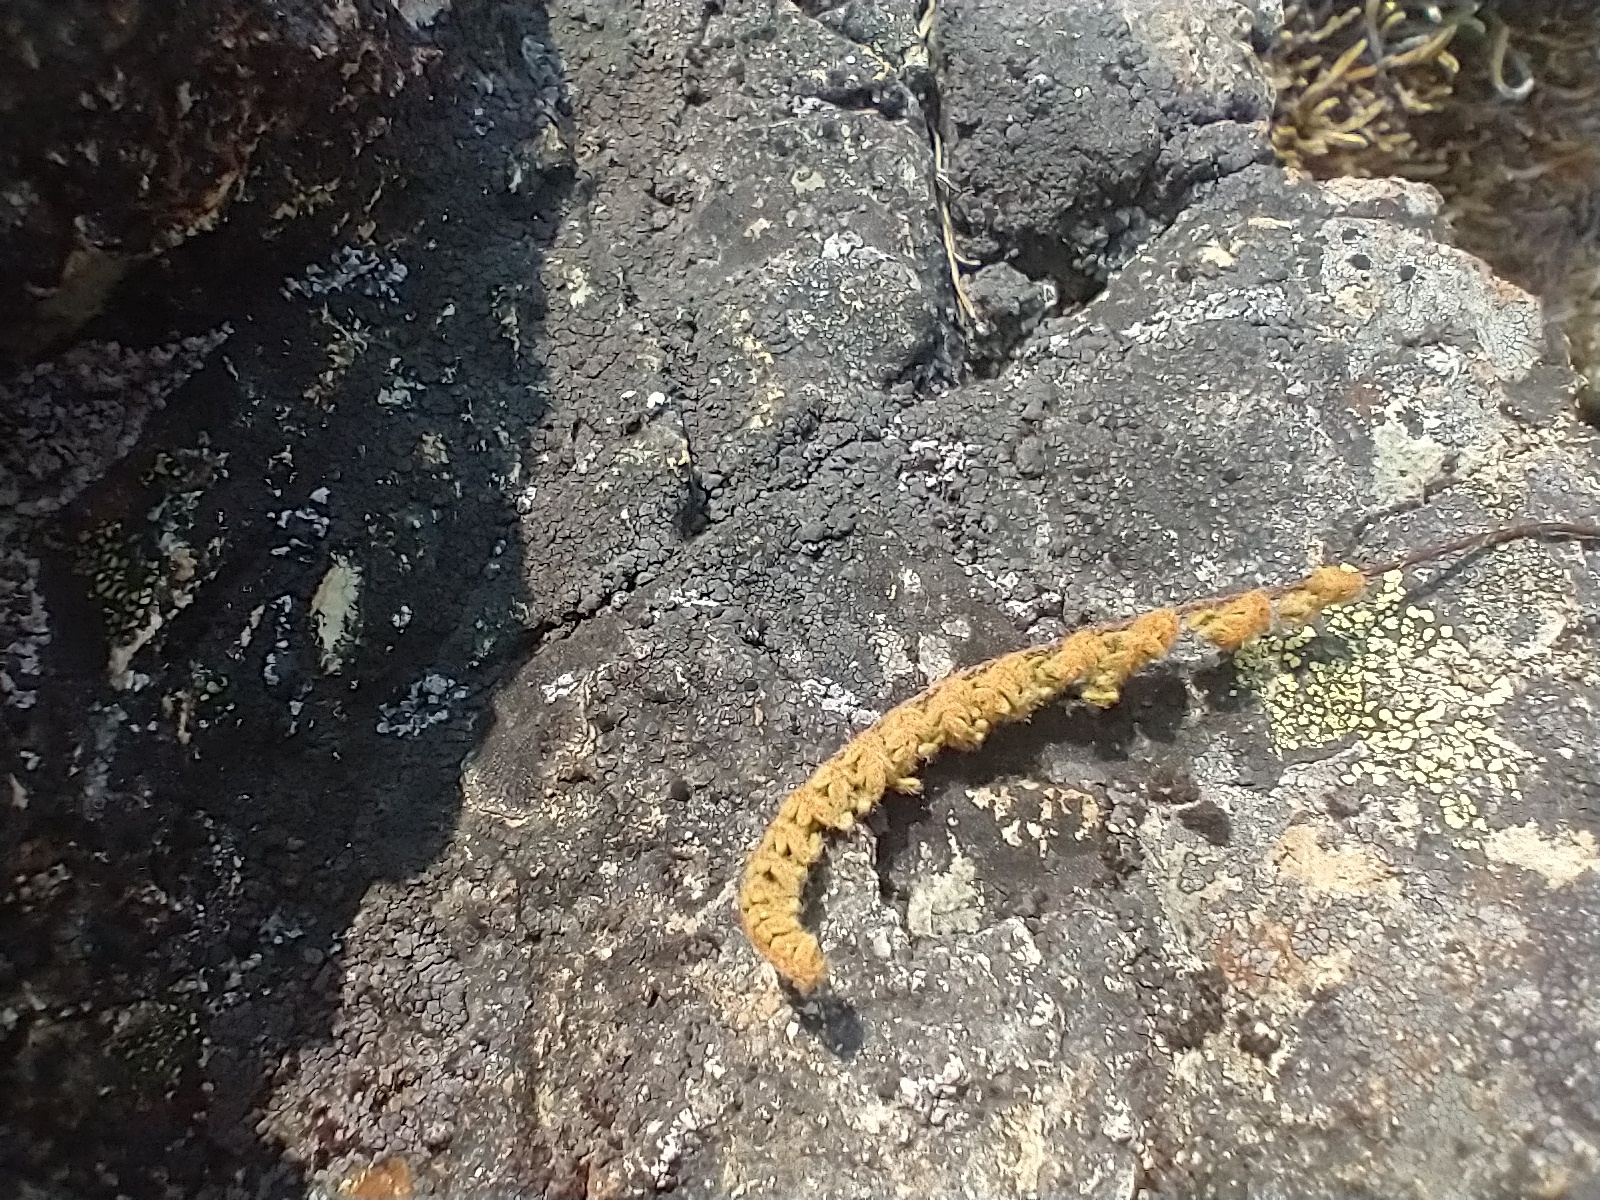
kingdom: Plantae
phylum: Tracheophyta
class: Polypodiopsida
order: Polypodiales
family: Pteridaceae
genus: Myriopteris
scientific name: Myriopteris gracillima
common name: Lace fern
